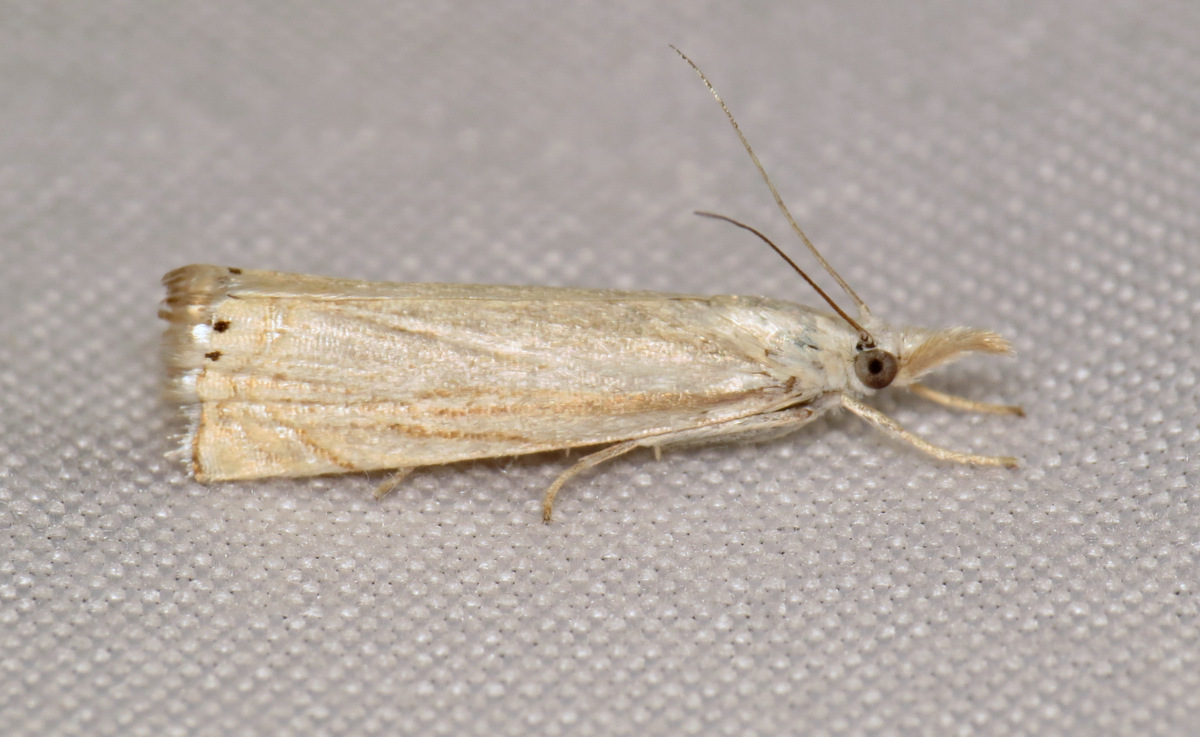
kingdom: Animalia
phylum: Arthropoda
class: Insecta
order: Lepidoptera
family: Crambidae
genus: Chrysoteuchia
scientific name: Chrysoteuchia topiarius
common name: Topiary grass-veneer
